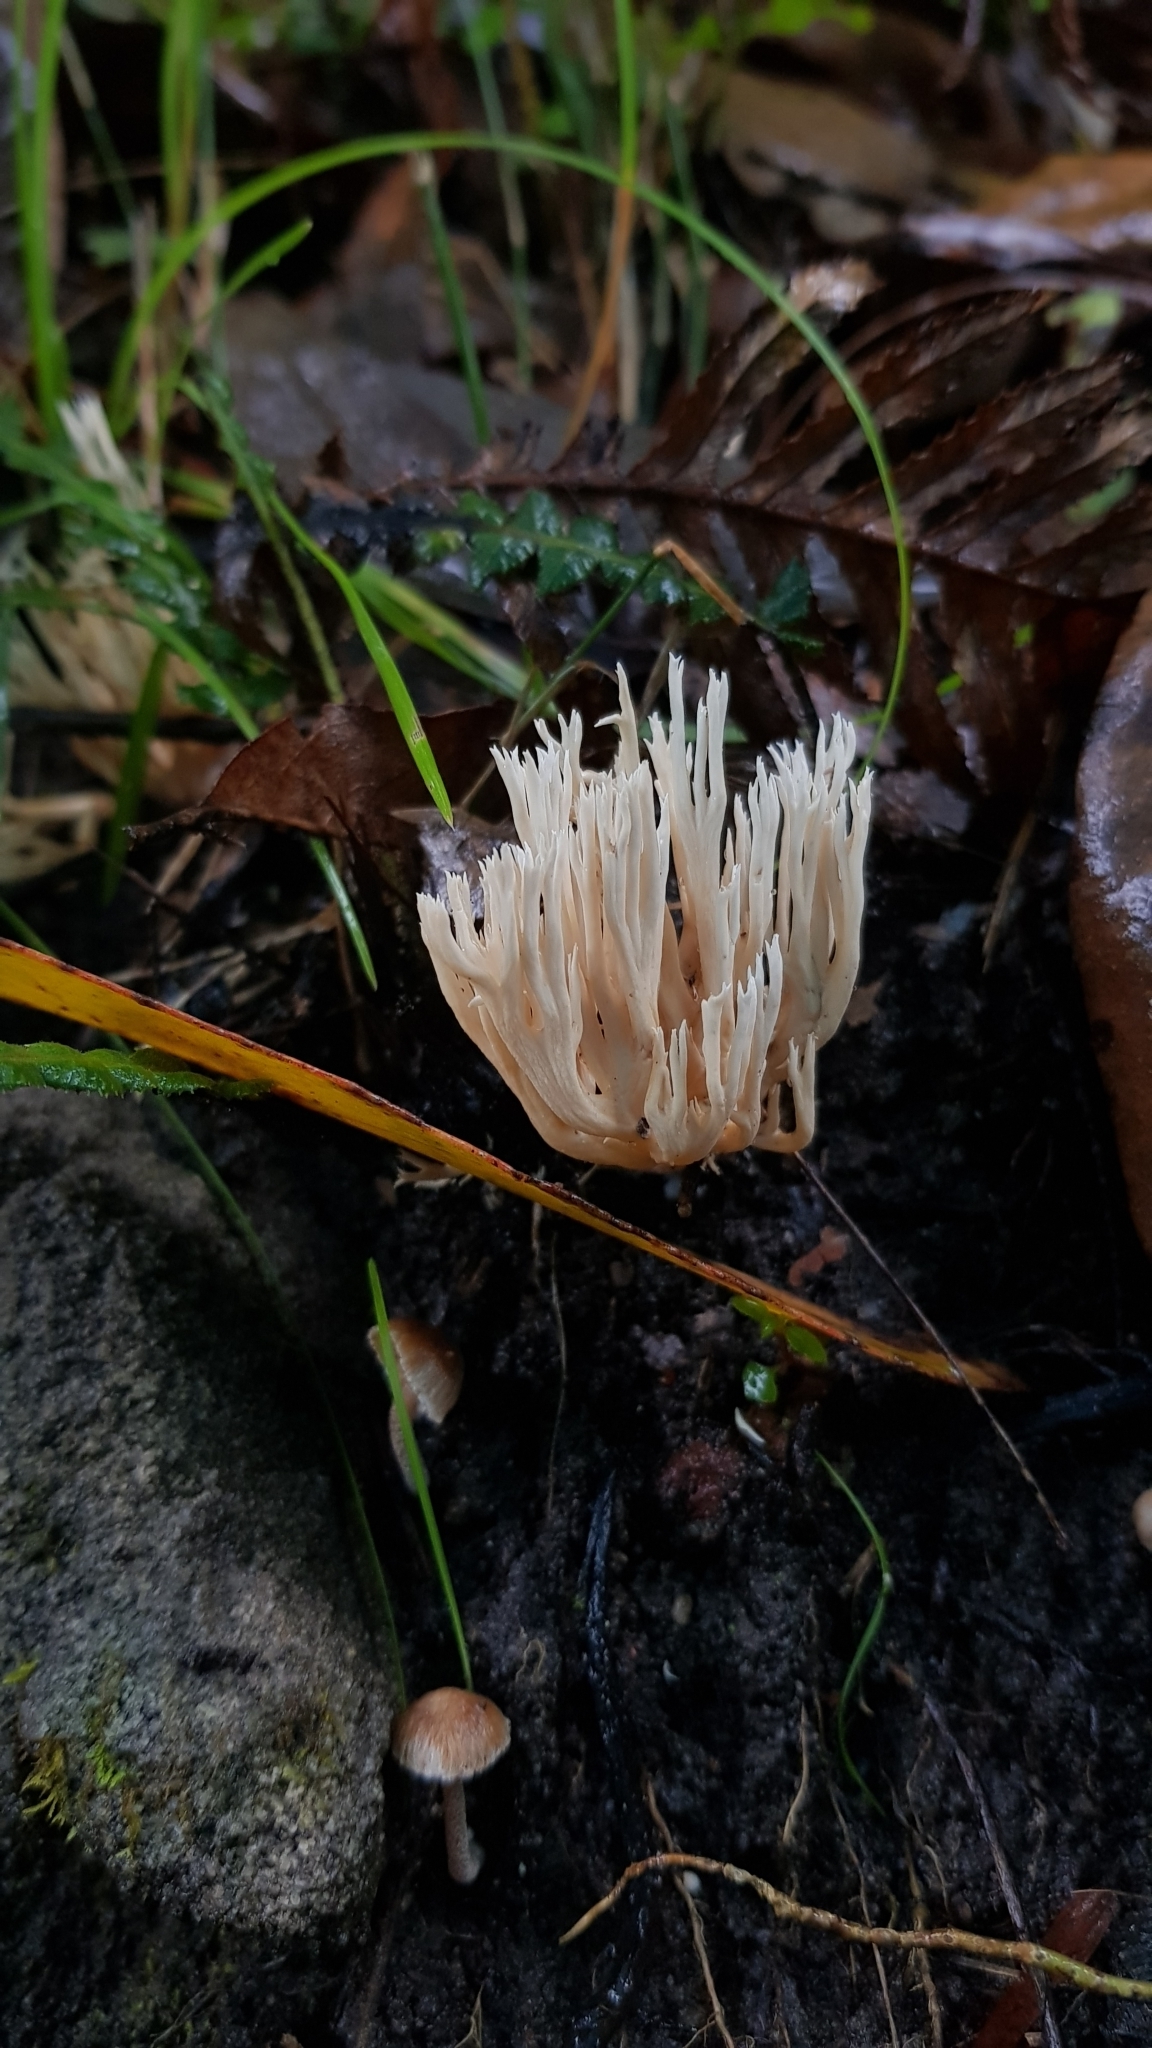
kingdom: Fungi
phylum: Basidiomycota
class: Agaricomycetes
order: Gomphales
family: Gomphaceae
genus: Ramaria
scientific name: Ramaria filicicola
